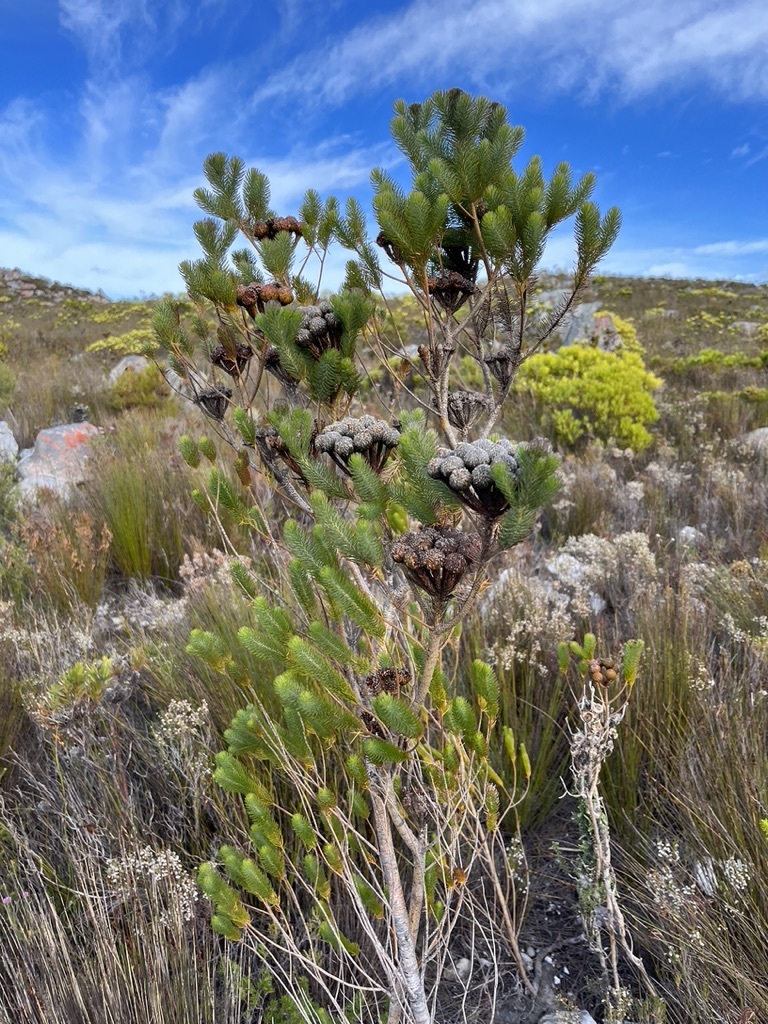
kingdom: Plantae
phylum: Tracheophyta
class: Magnoliopsida
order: Bruniales
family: Bruniaceae
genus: Berzelia
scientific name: Berzelia albiflora
